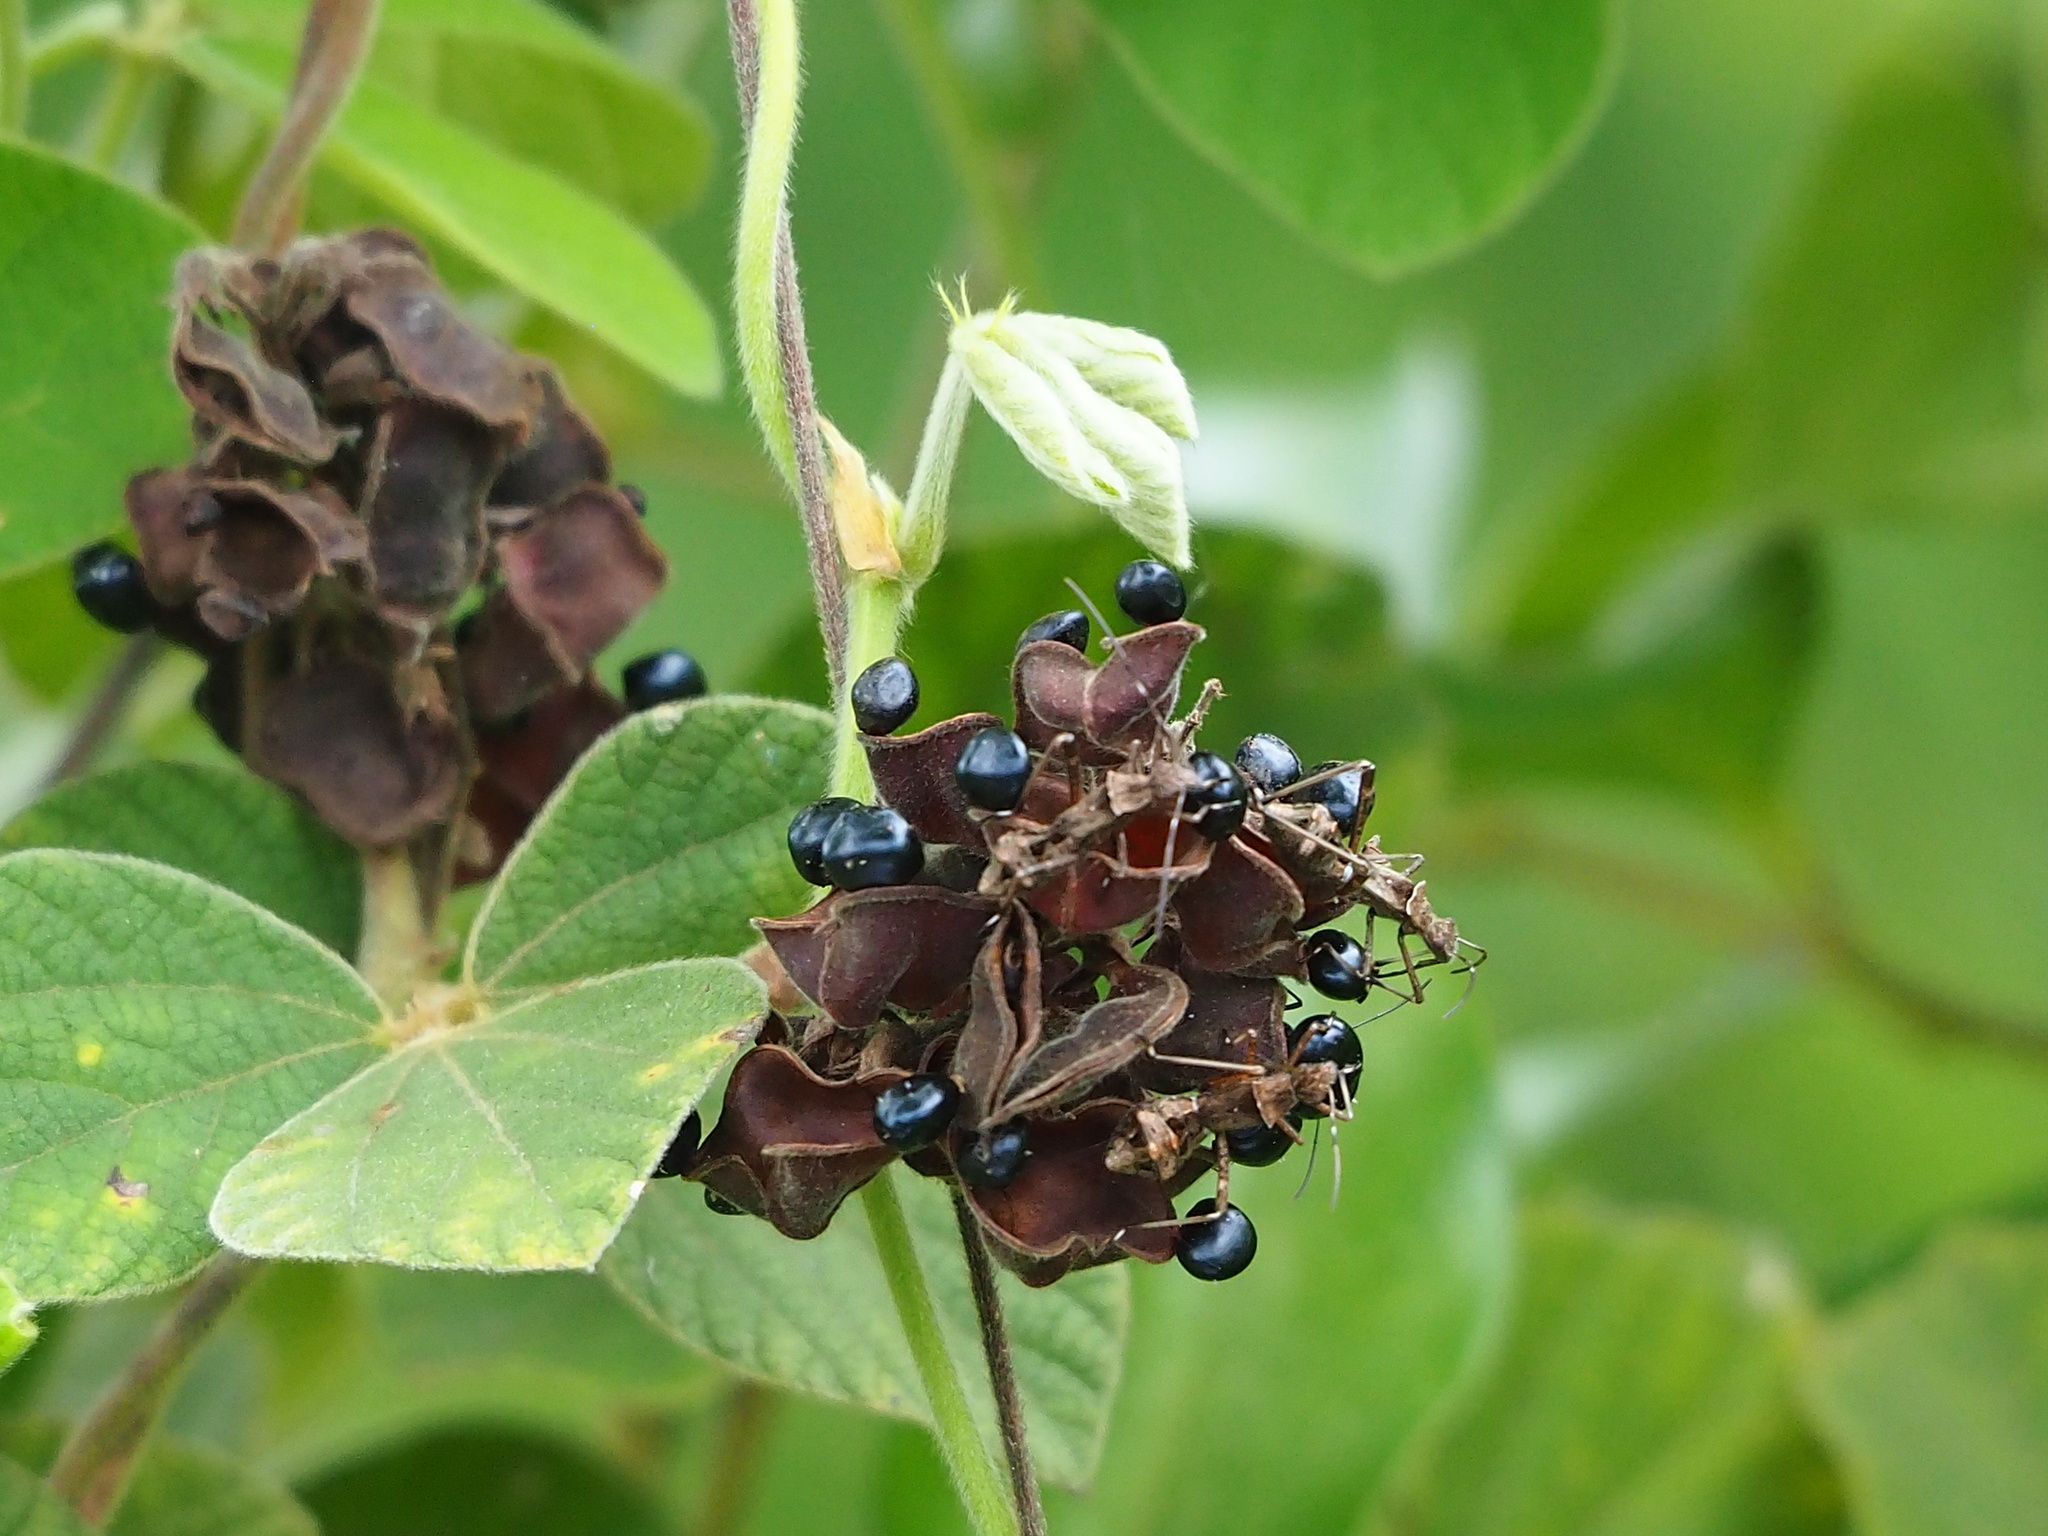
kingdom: Plantae
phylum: Tracheophyta
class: Magnoliopsida
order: Fabales
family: Fabaceae
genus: Rhynchosia
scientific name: Rhynchosia volubilis
